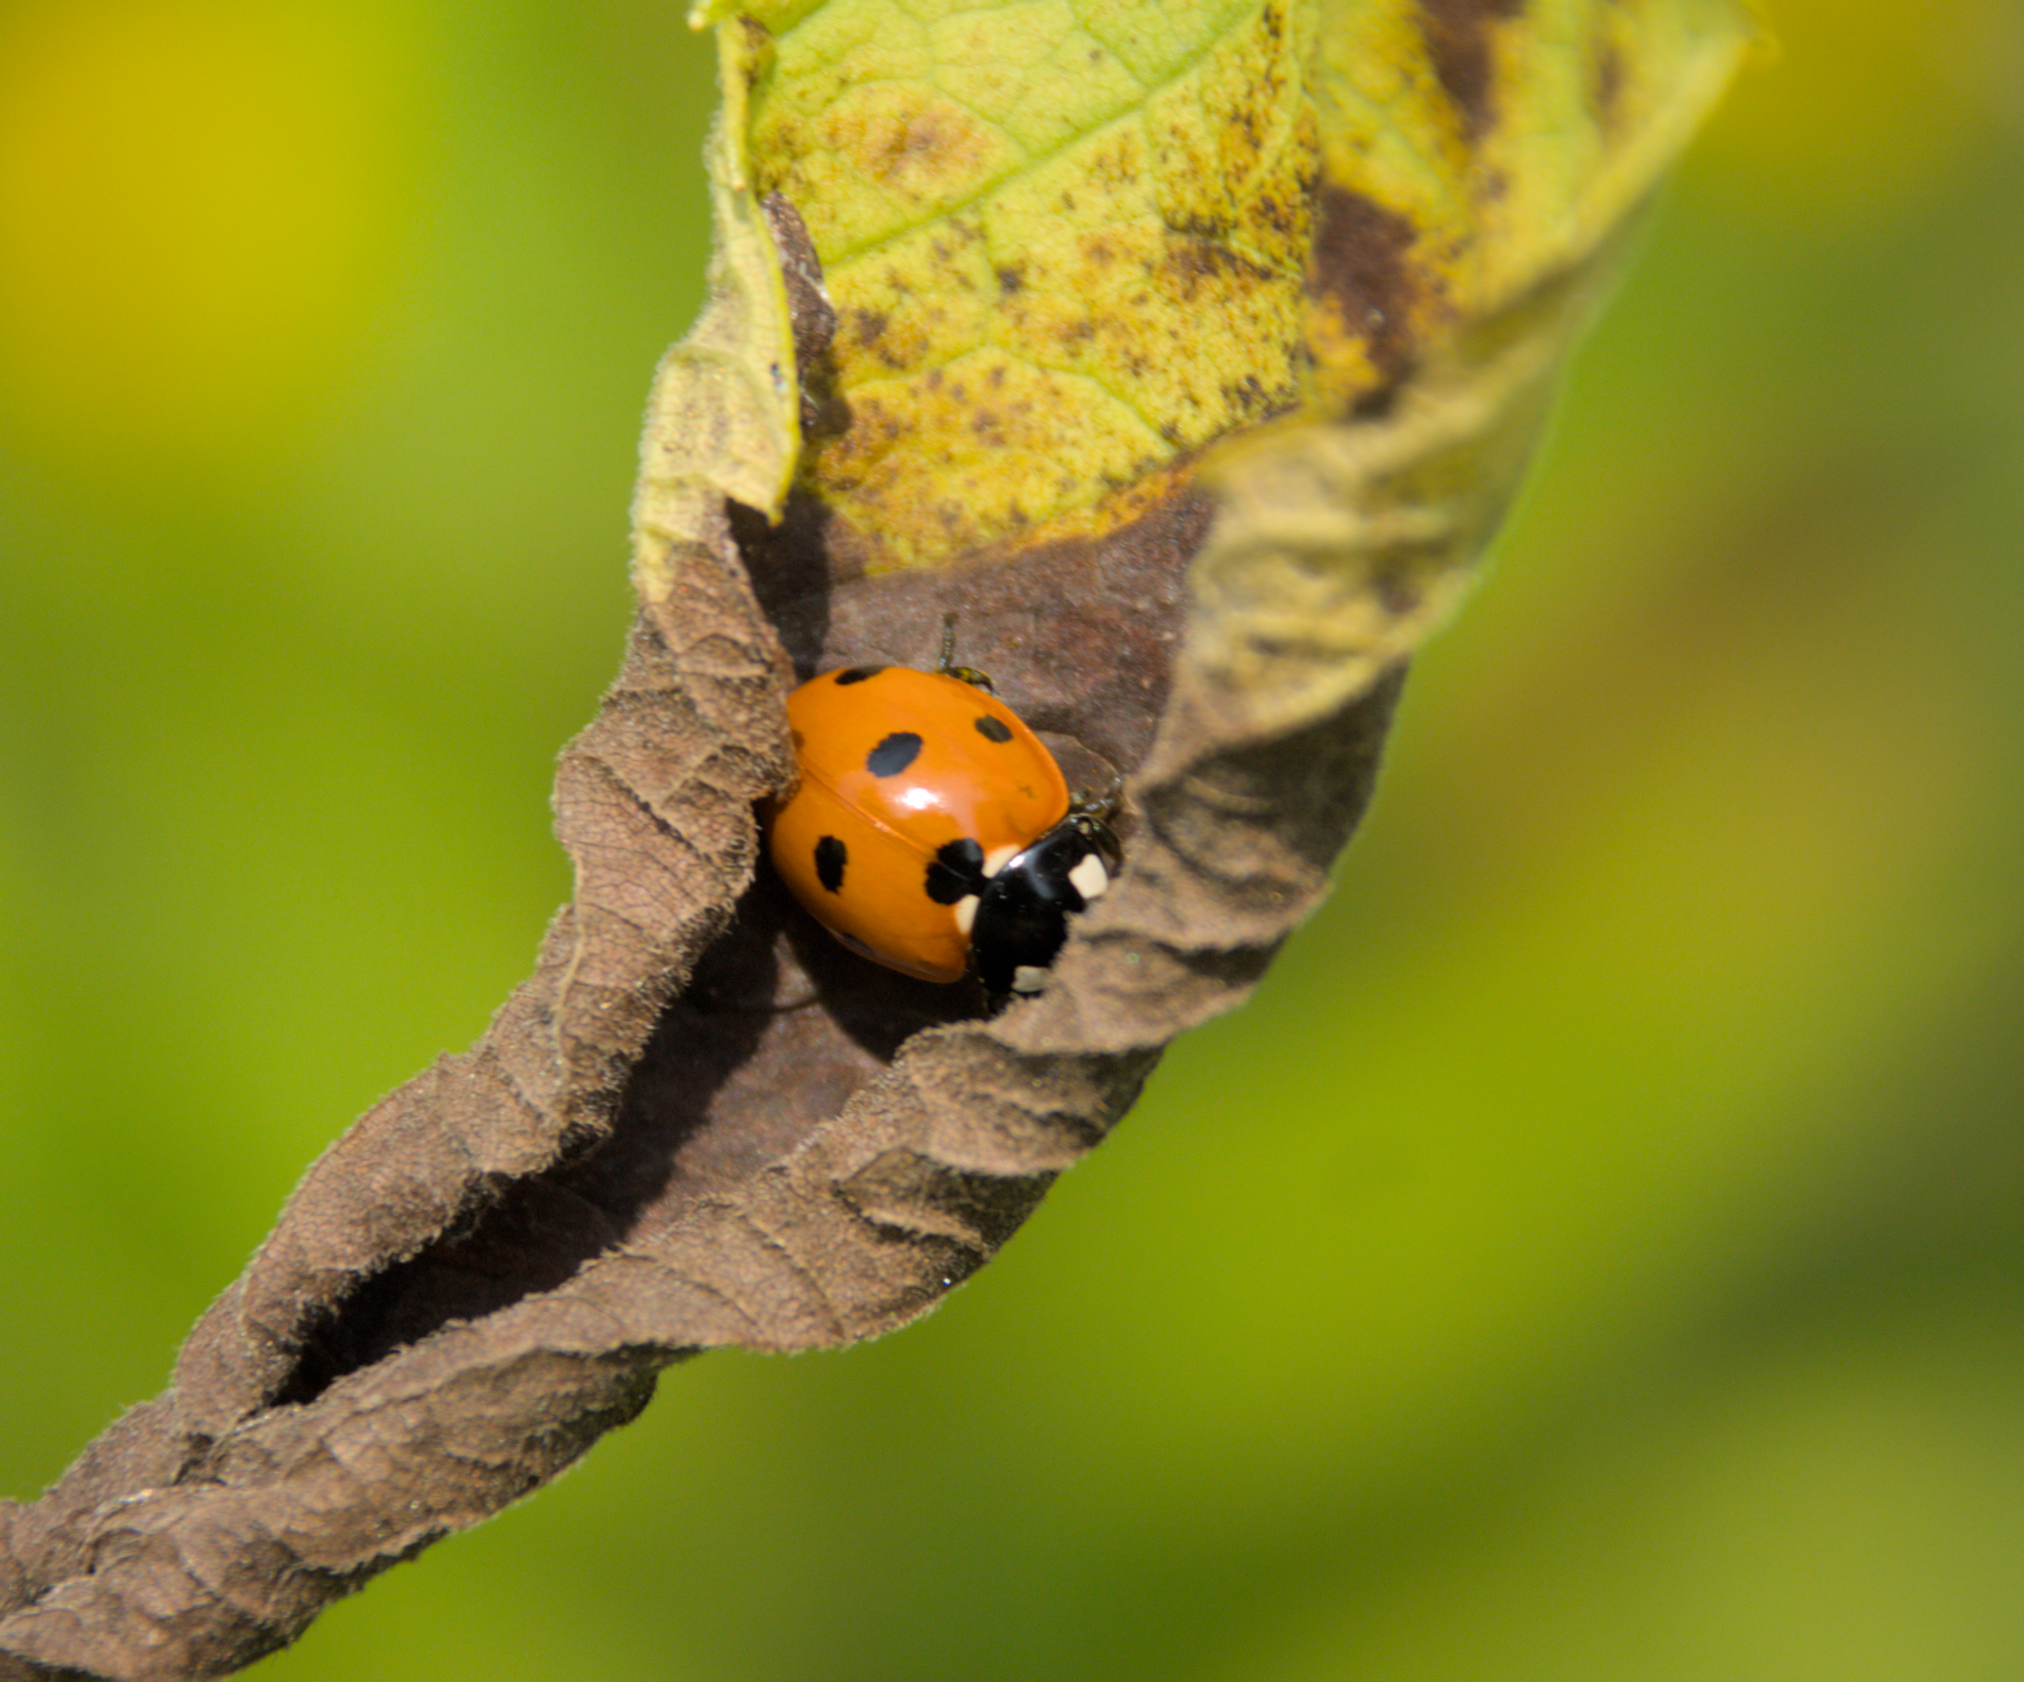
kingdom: Animalia
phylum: Arthropoda
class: Insecta
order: Coleoptera
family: Coccinellidae
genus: Coccinella
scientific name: Coccinella septempunctata
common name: Sevenspotted lady beetle
